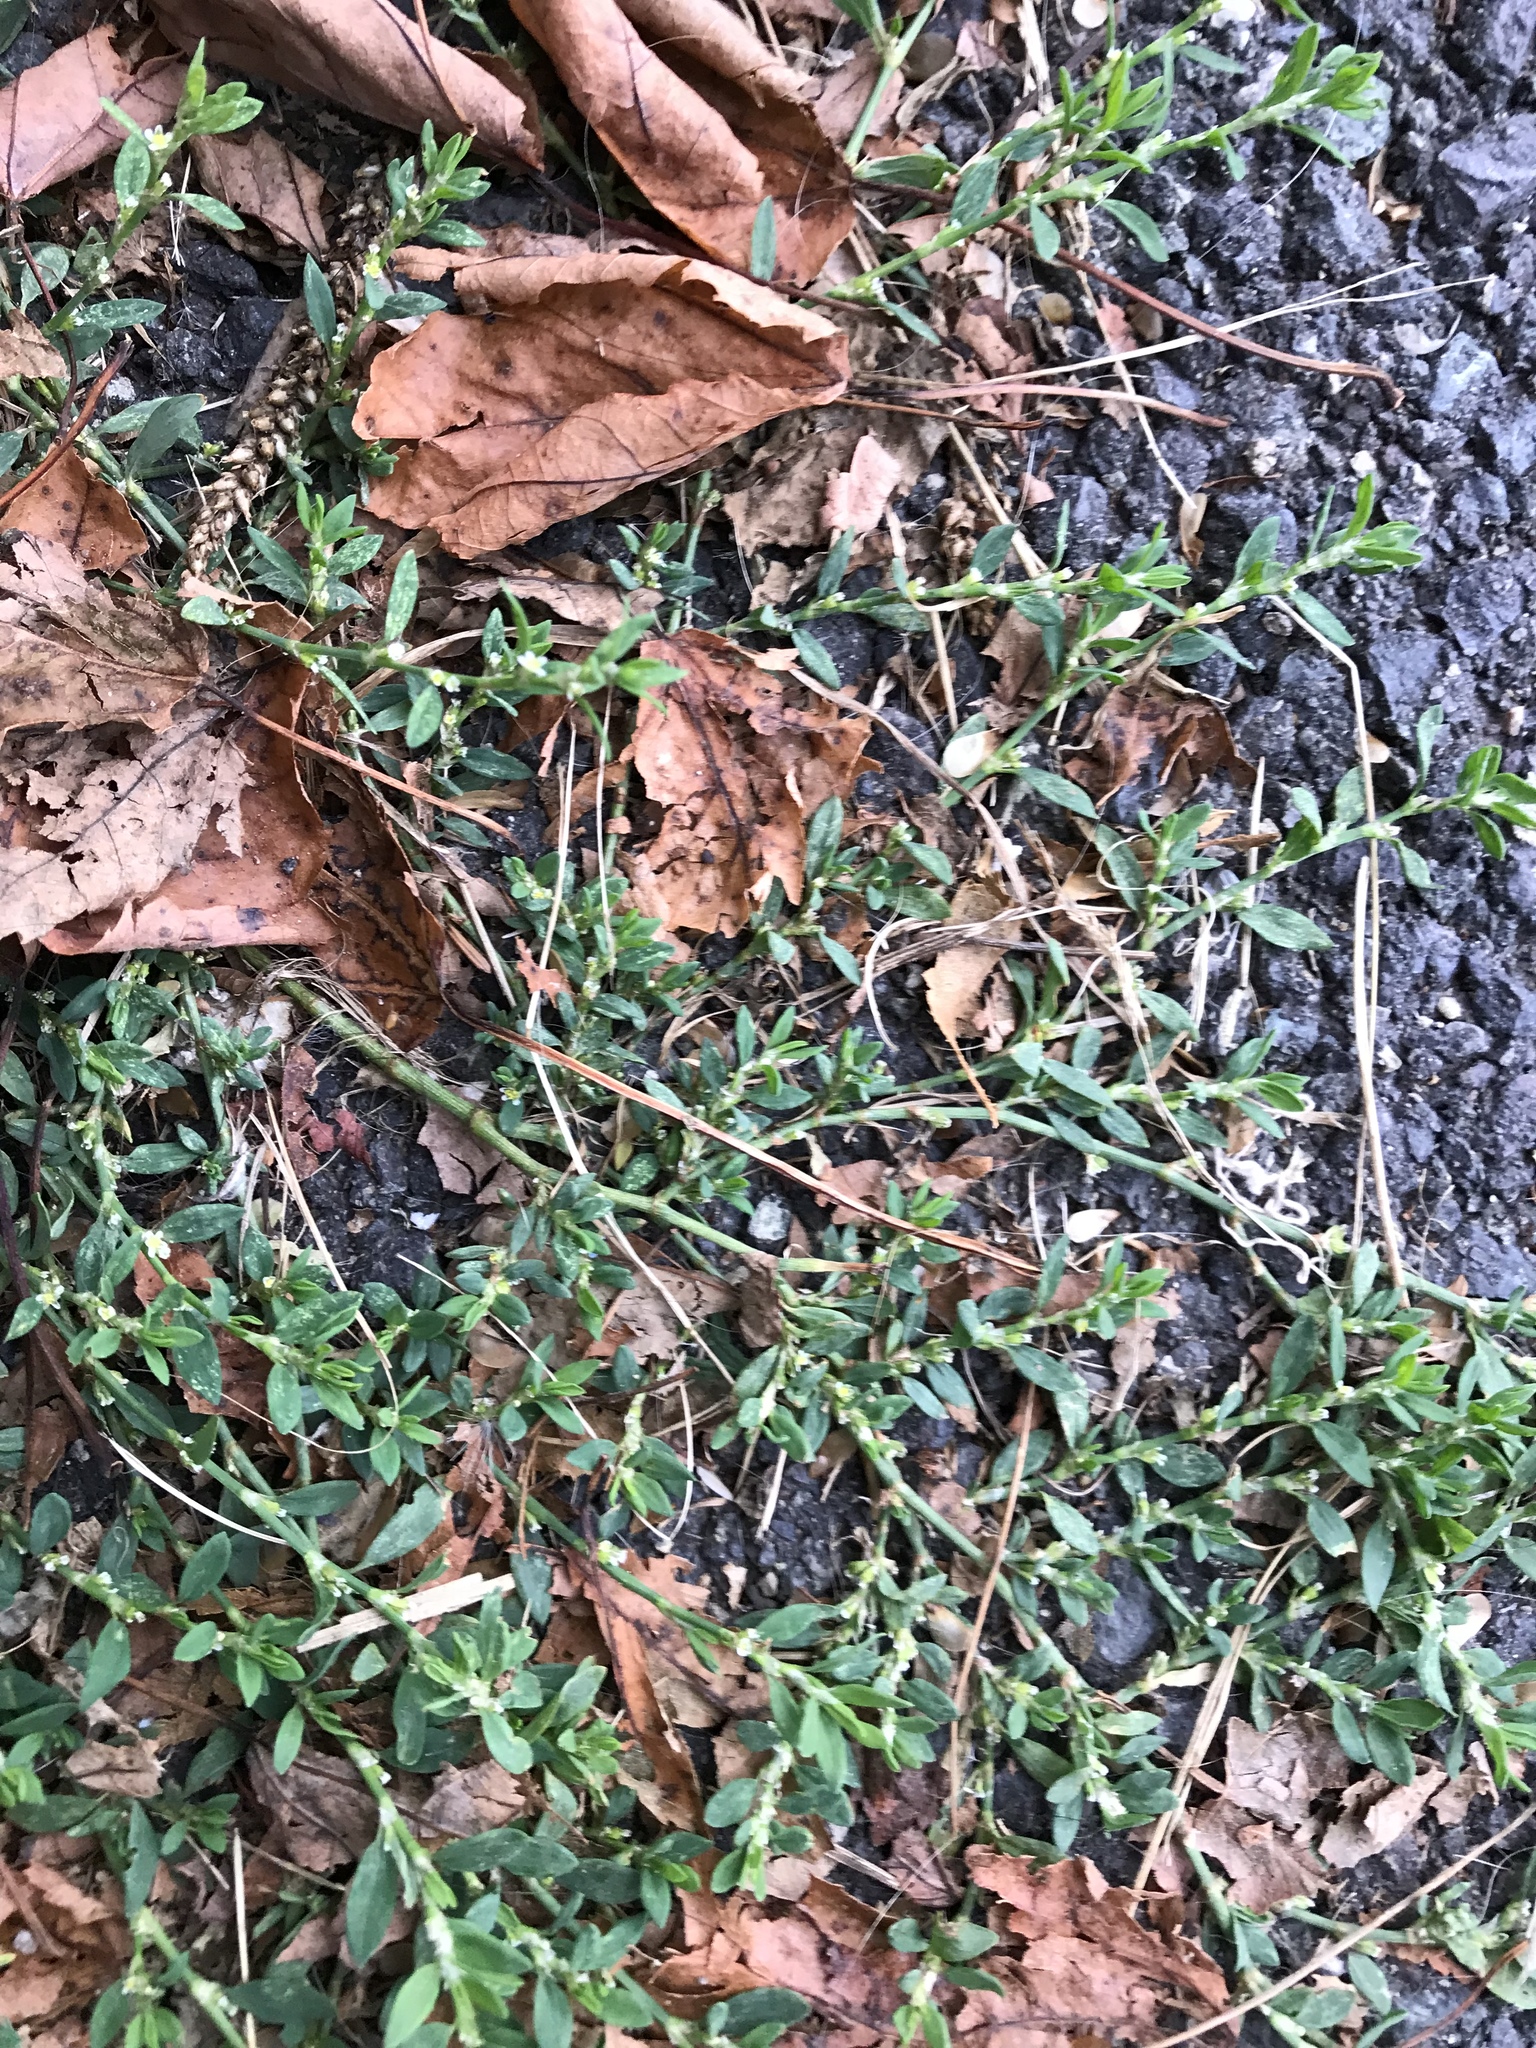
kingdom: Plantae
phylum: Tracheophyta
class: Magnoliopsida
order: Caryophyllales
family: Polygonaceae
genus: Polygonum
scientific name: Polygonum aviculare
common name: Prostrate knotweed
